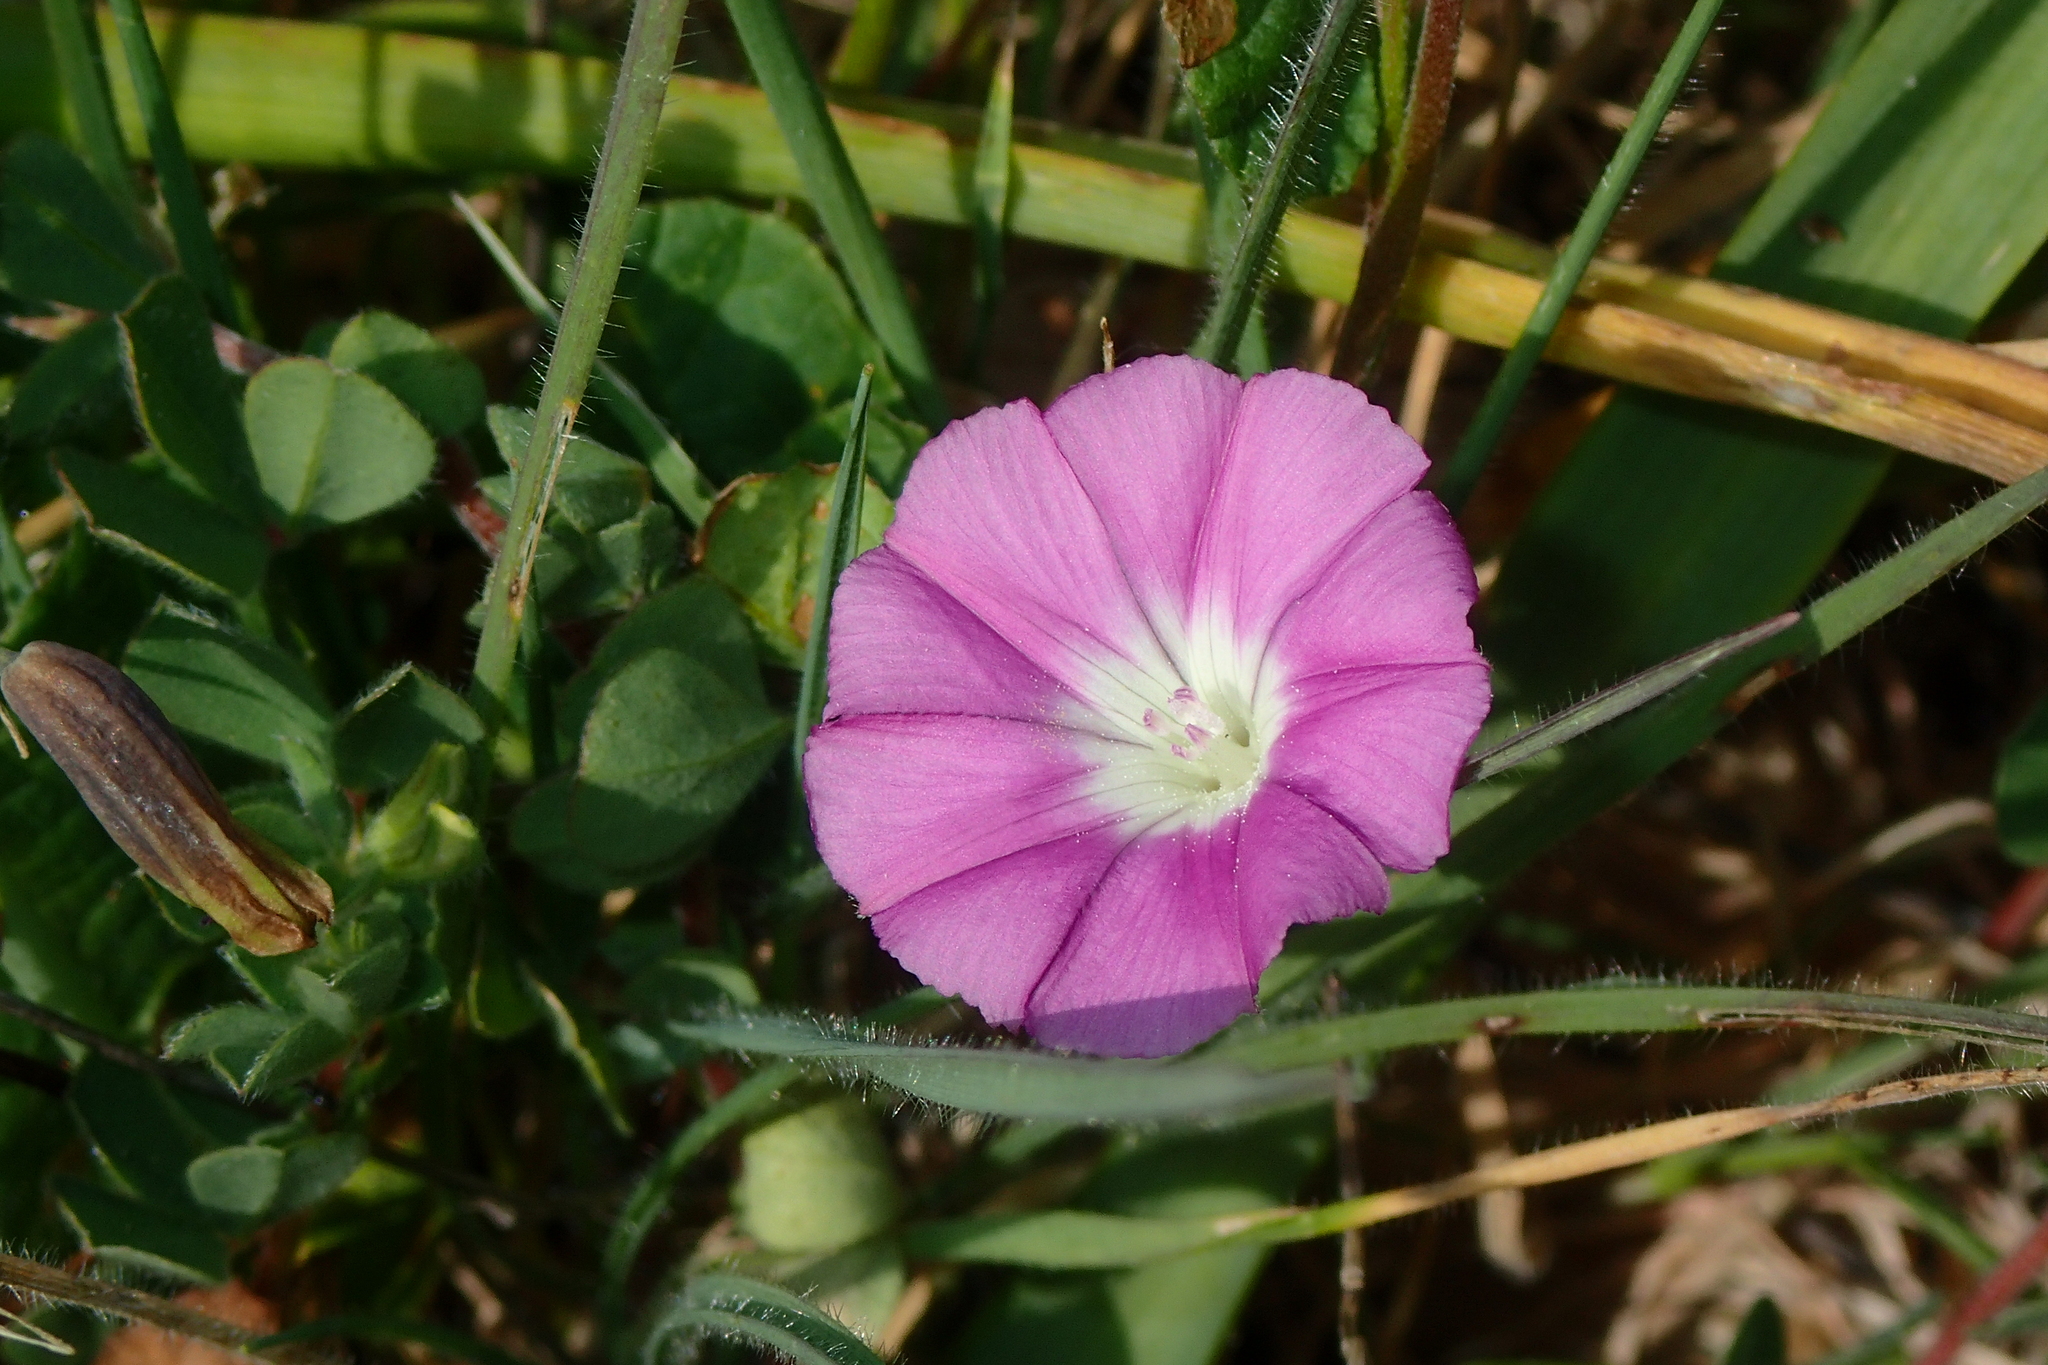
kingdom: Plantae
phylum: Tracheophyta
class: Magnoliopsida
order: Solanales
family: Convolvulaceae
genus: Convolvulus
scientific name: Convolvulus coelesyriacus
